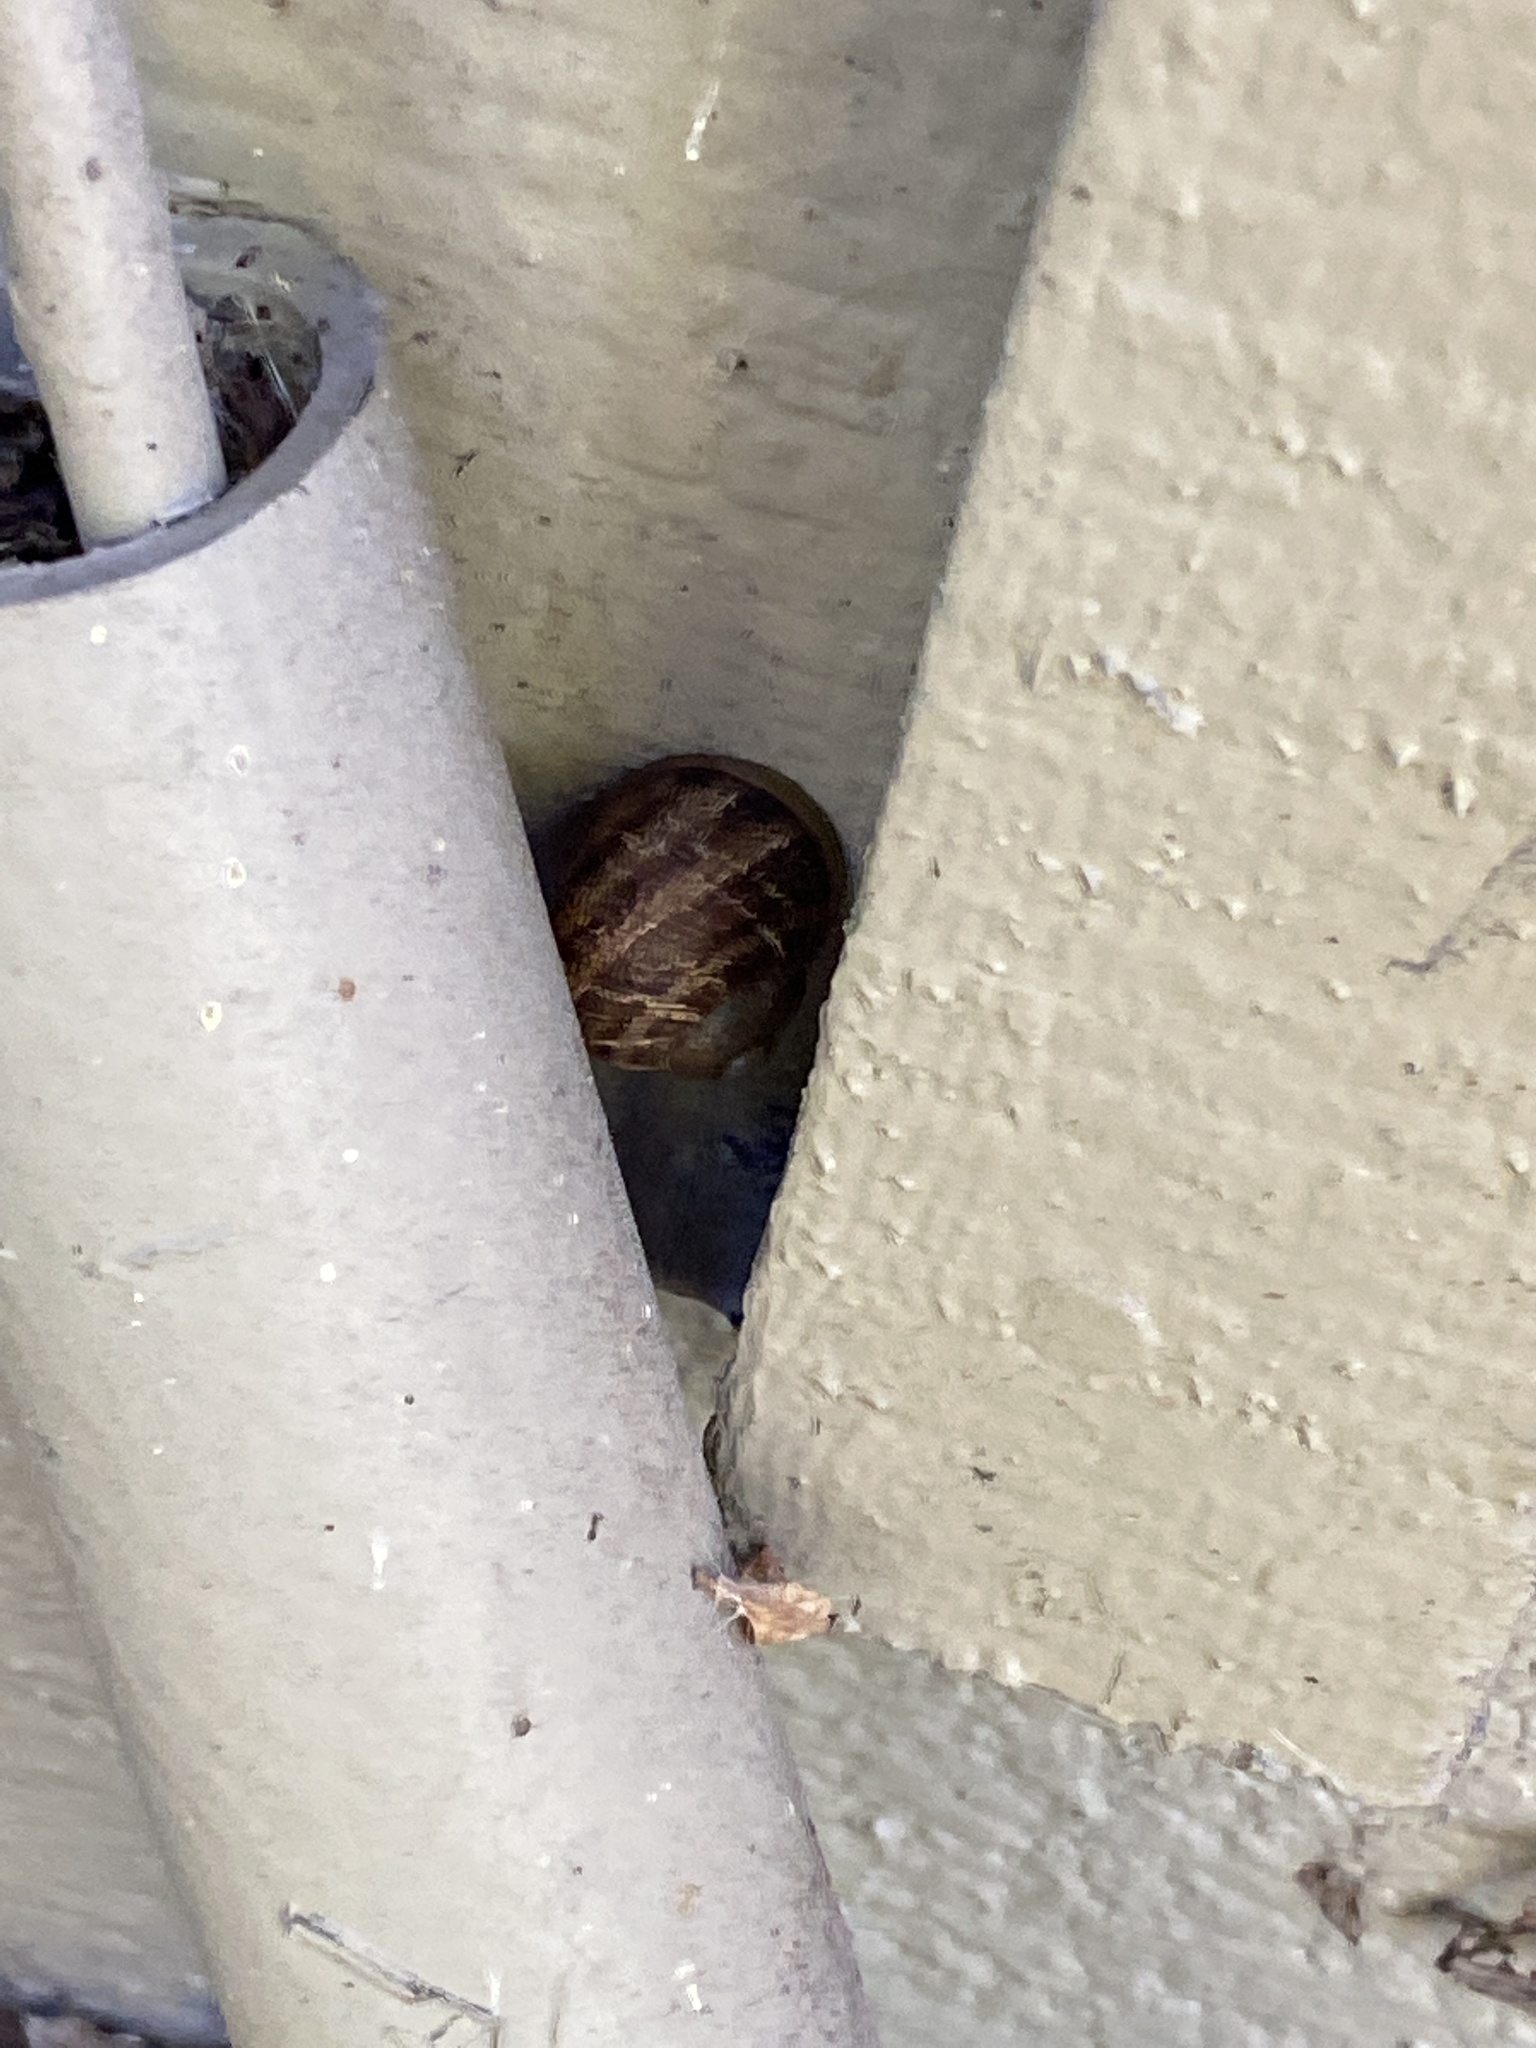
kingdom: Animalia
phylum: Mollusca
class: Gastropoda
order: Stylommatophora
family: Helicidae
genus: Cornu
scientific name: Cornu aspersum
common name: Brown garden snail
